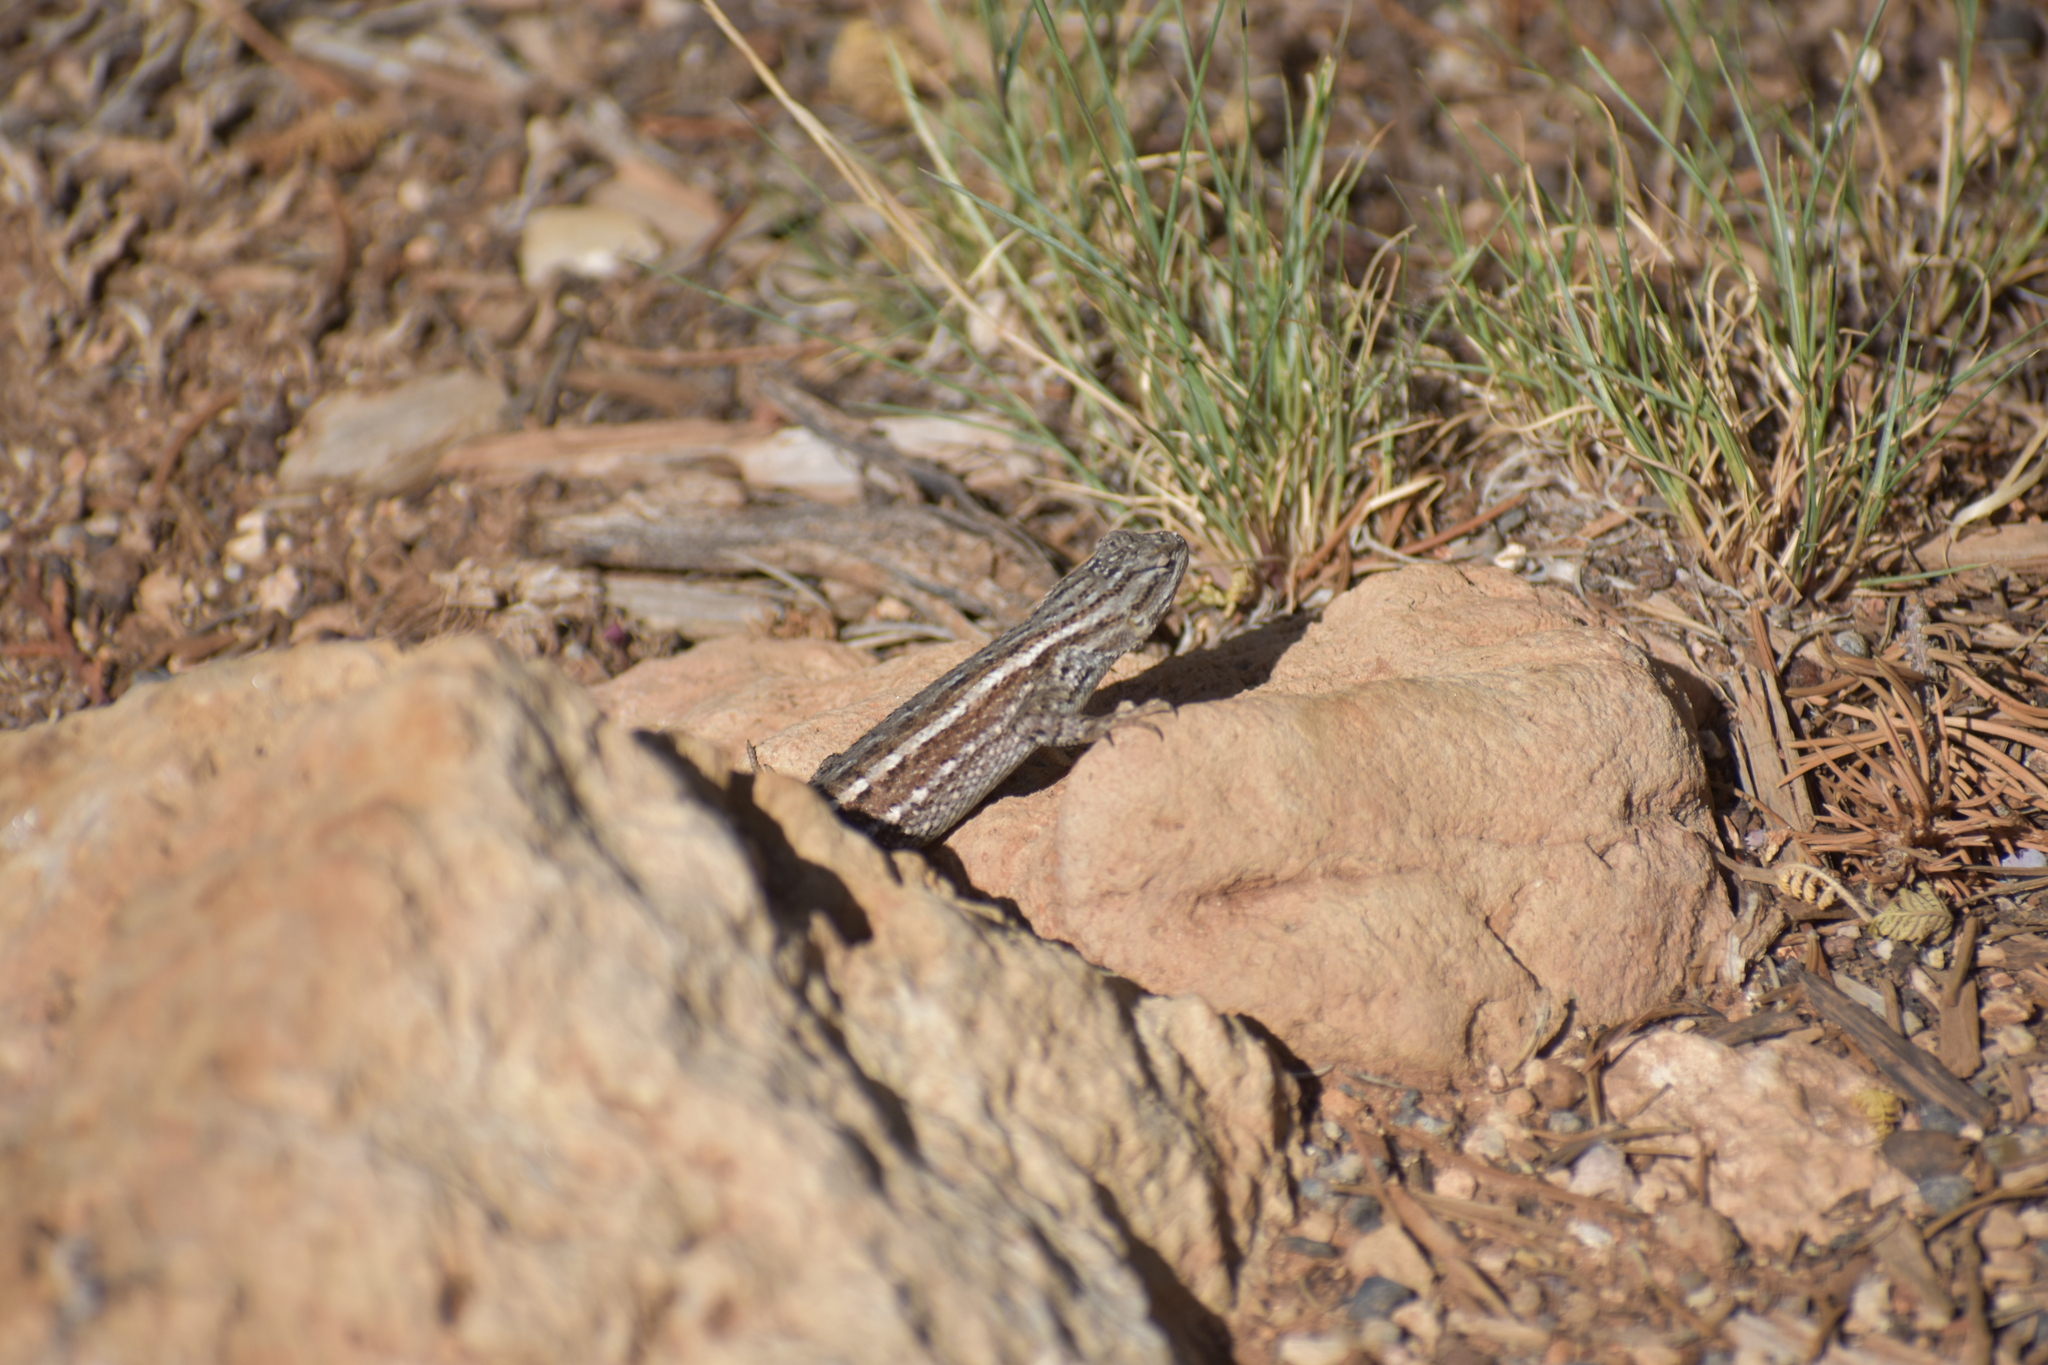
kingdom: Animalia
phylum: Chordata
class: Squamata
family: Phrynosomatidae
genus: Sceloporus
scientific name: Sceloporus tristichus
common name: Plateau fence lizard
